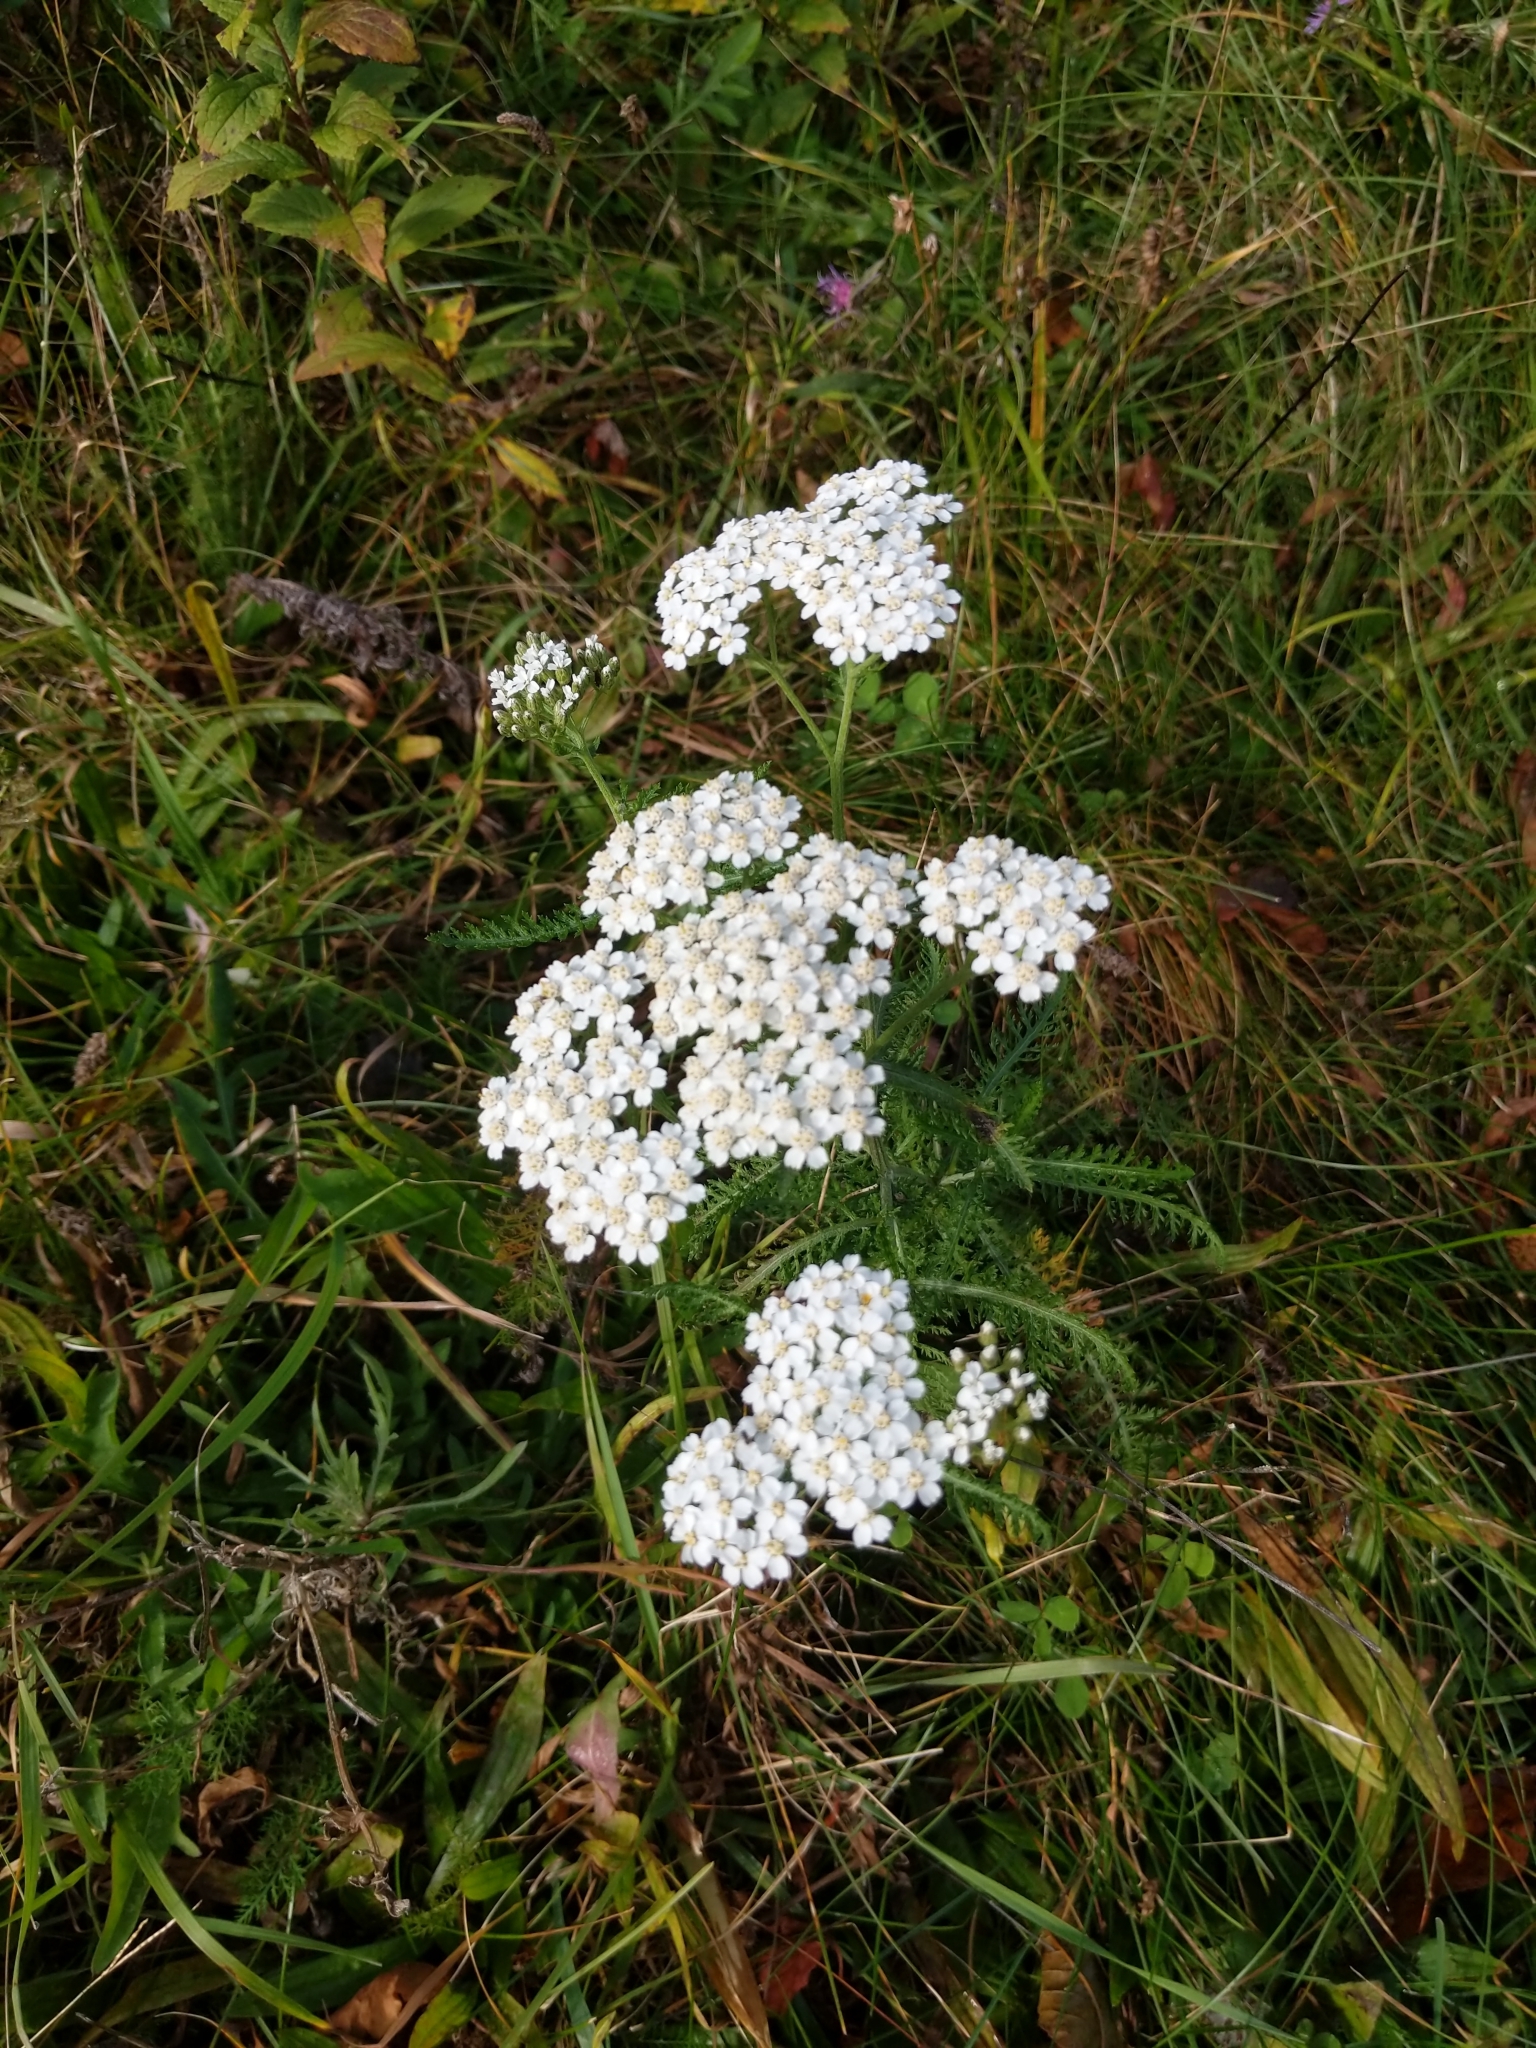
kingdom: Plantae
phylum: Tracheophyta
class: Magnoliopsida
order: Asterales
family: Asteraceae
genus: Achillea
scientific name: Achillea millefolium
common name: Yarrow
